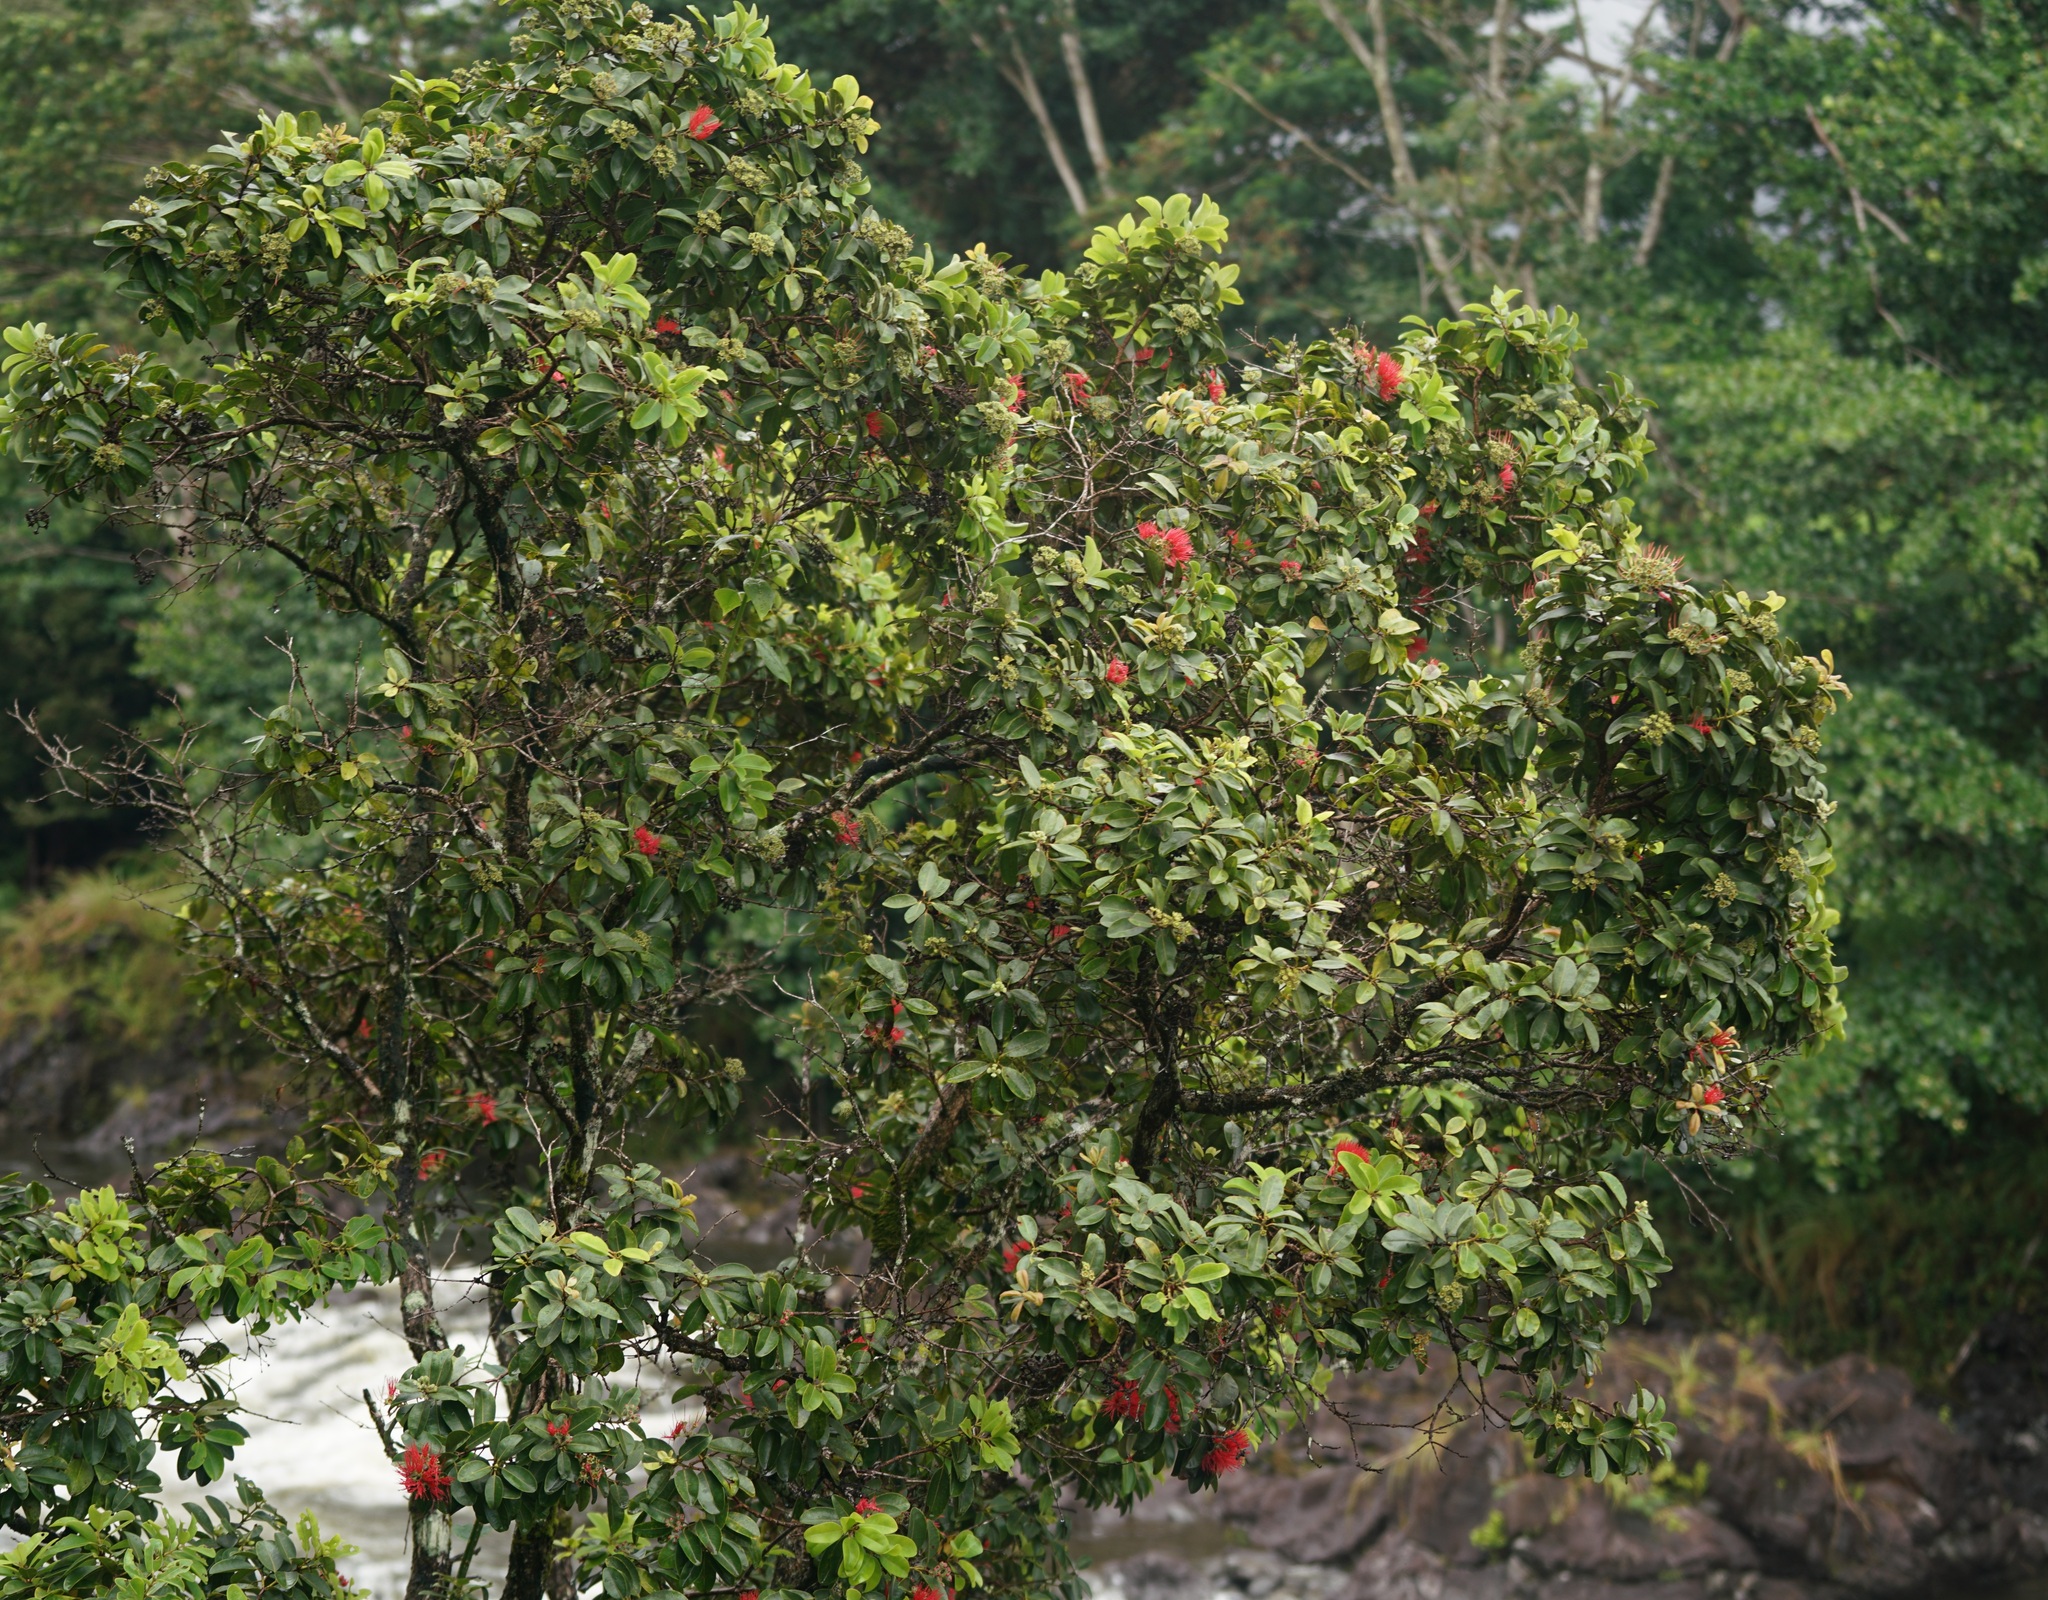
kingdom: Plantae
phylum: Tracheophyta
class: Magnoliopsida
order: Myrtales
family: Myrtaceae
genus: Metrosideros
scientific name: Metrosideros polymorpha
